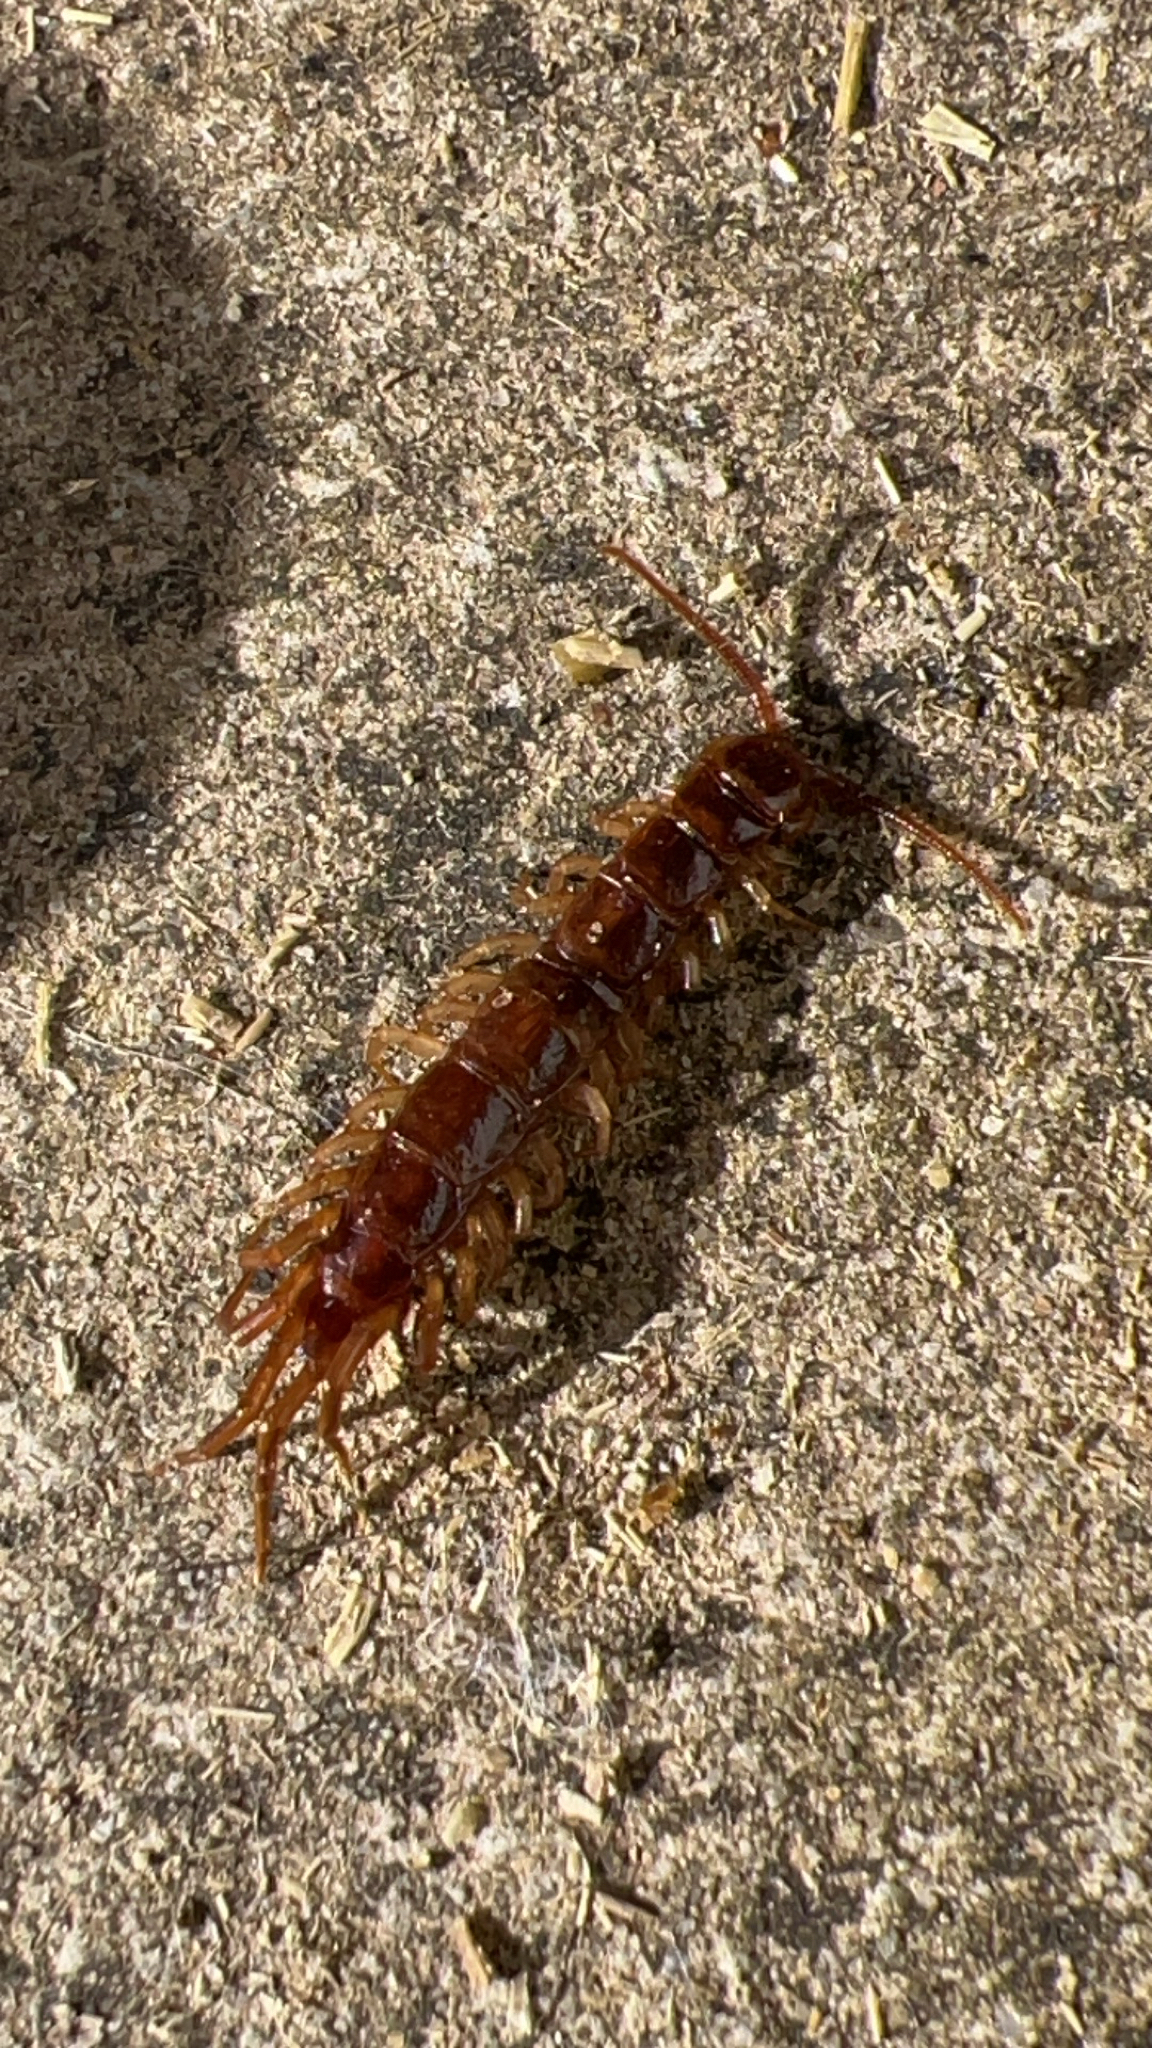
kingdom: Animalia
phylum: Arthropoda
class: Chilopoda
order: Lithobiomorpha
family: Lithobiidae
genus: Lithobius
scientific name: Lithobius forficatus
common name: Centipede
